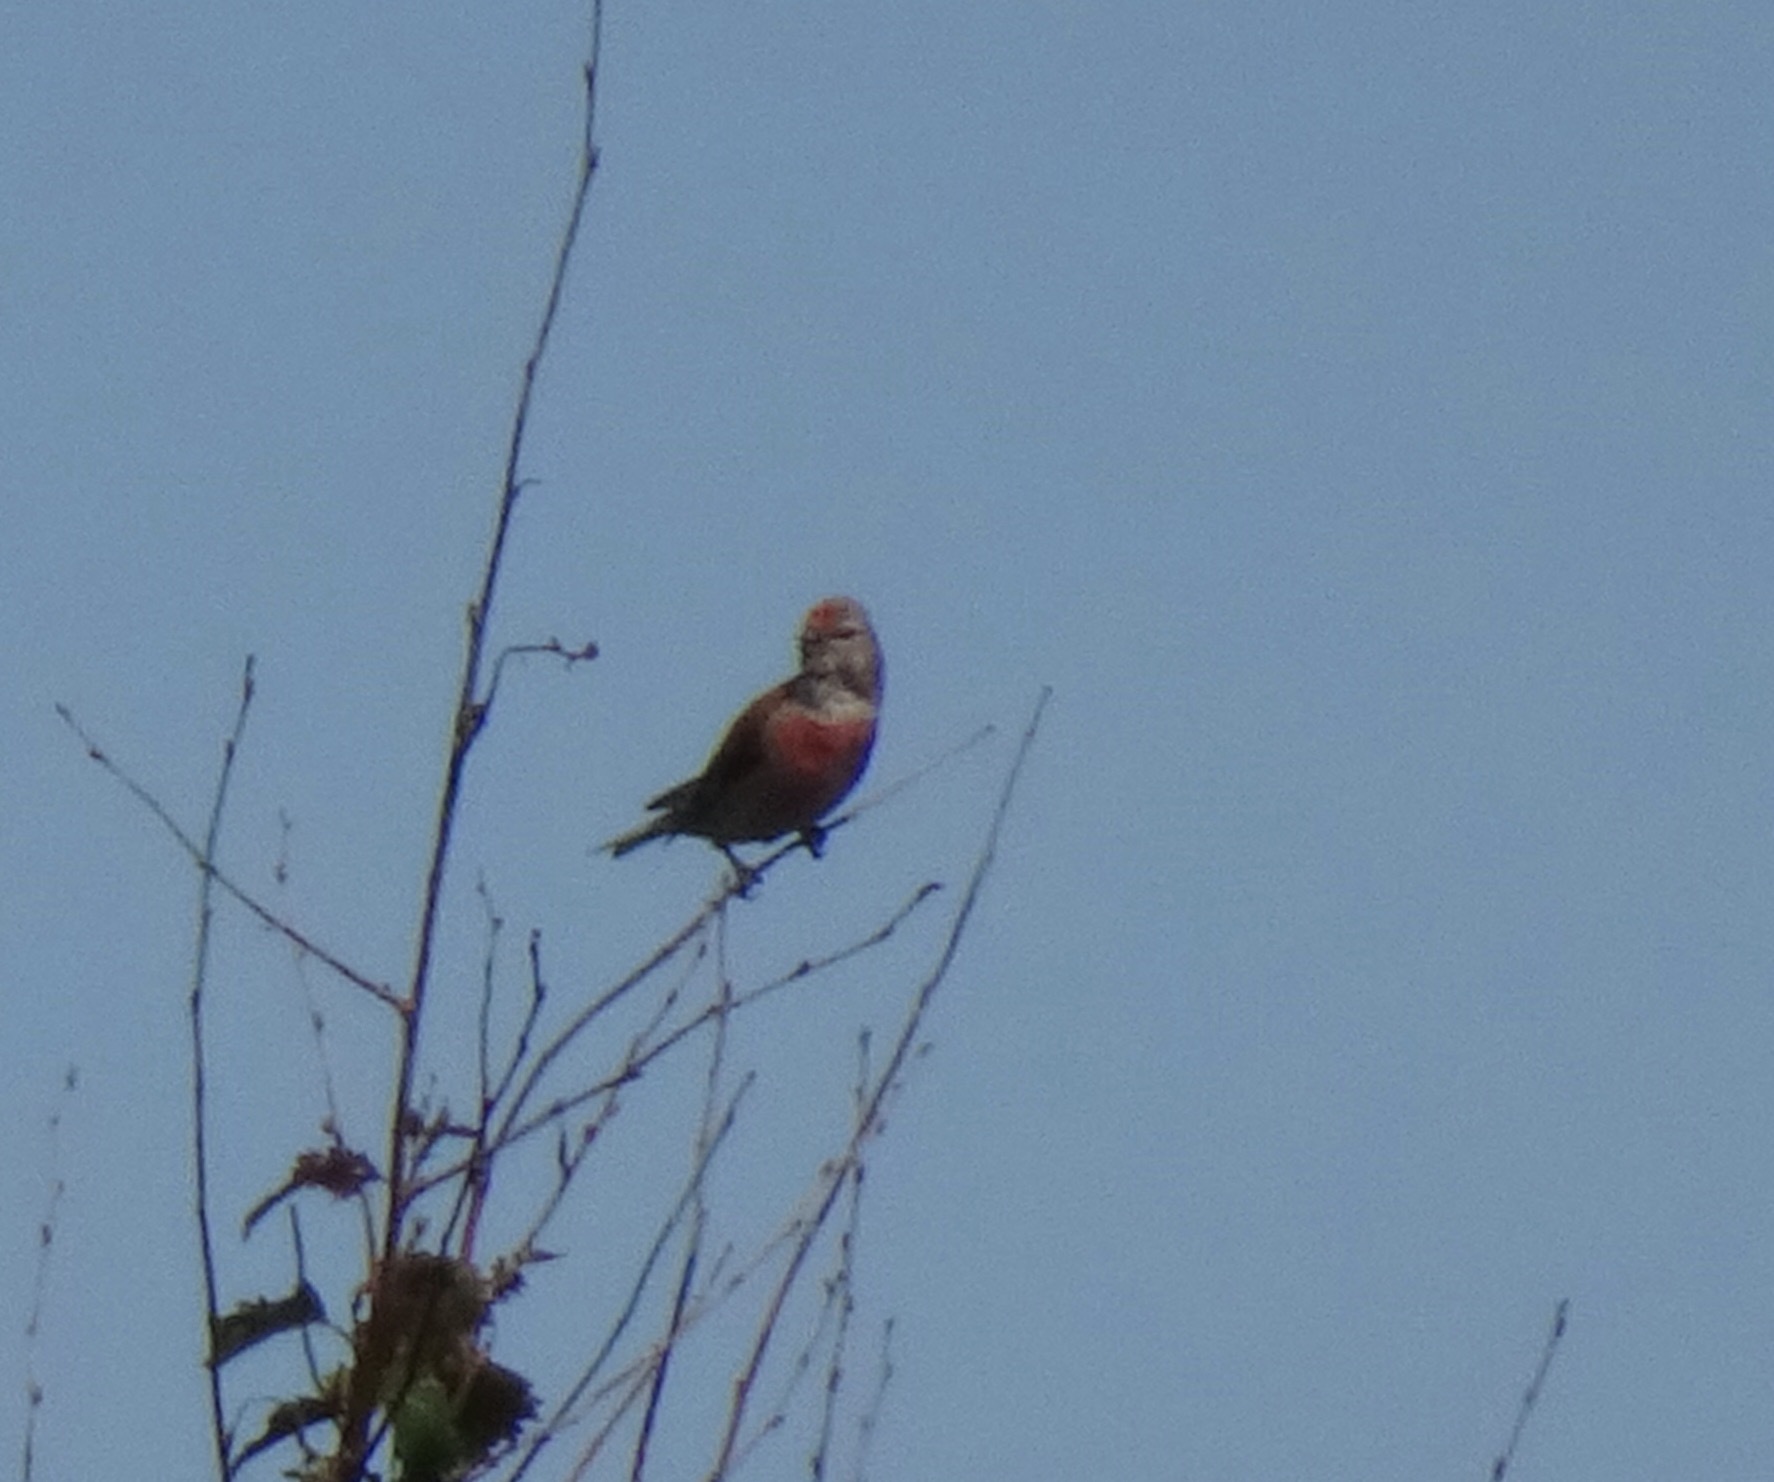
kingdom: Animalia
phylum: Chordata
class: Aves
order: Passeriformes
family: Fringillidae
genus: Linaria
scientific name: Linaria cannabina
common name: Common linnet
